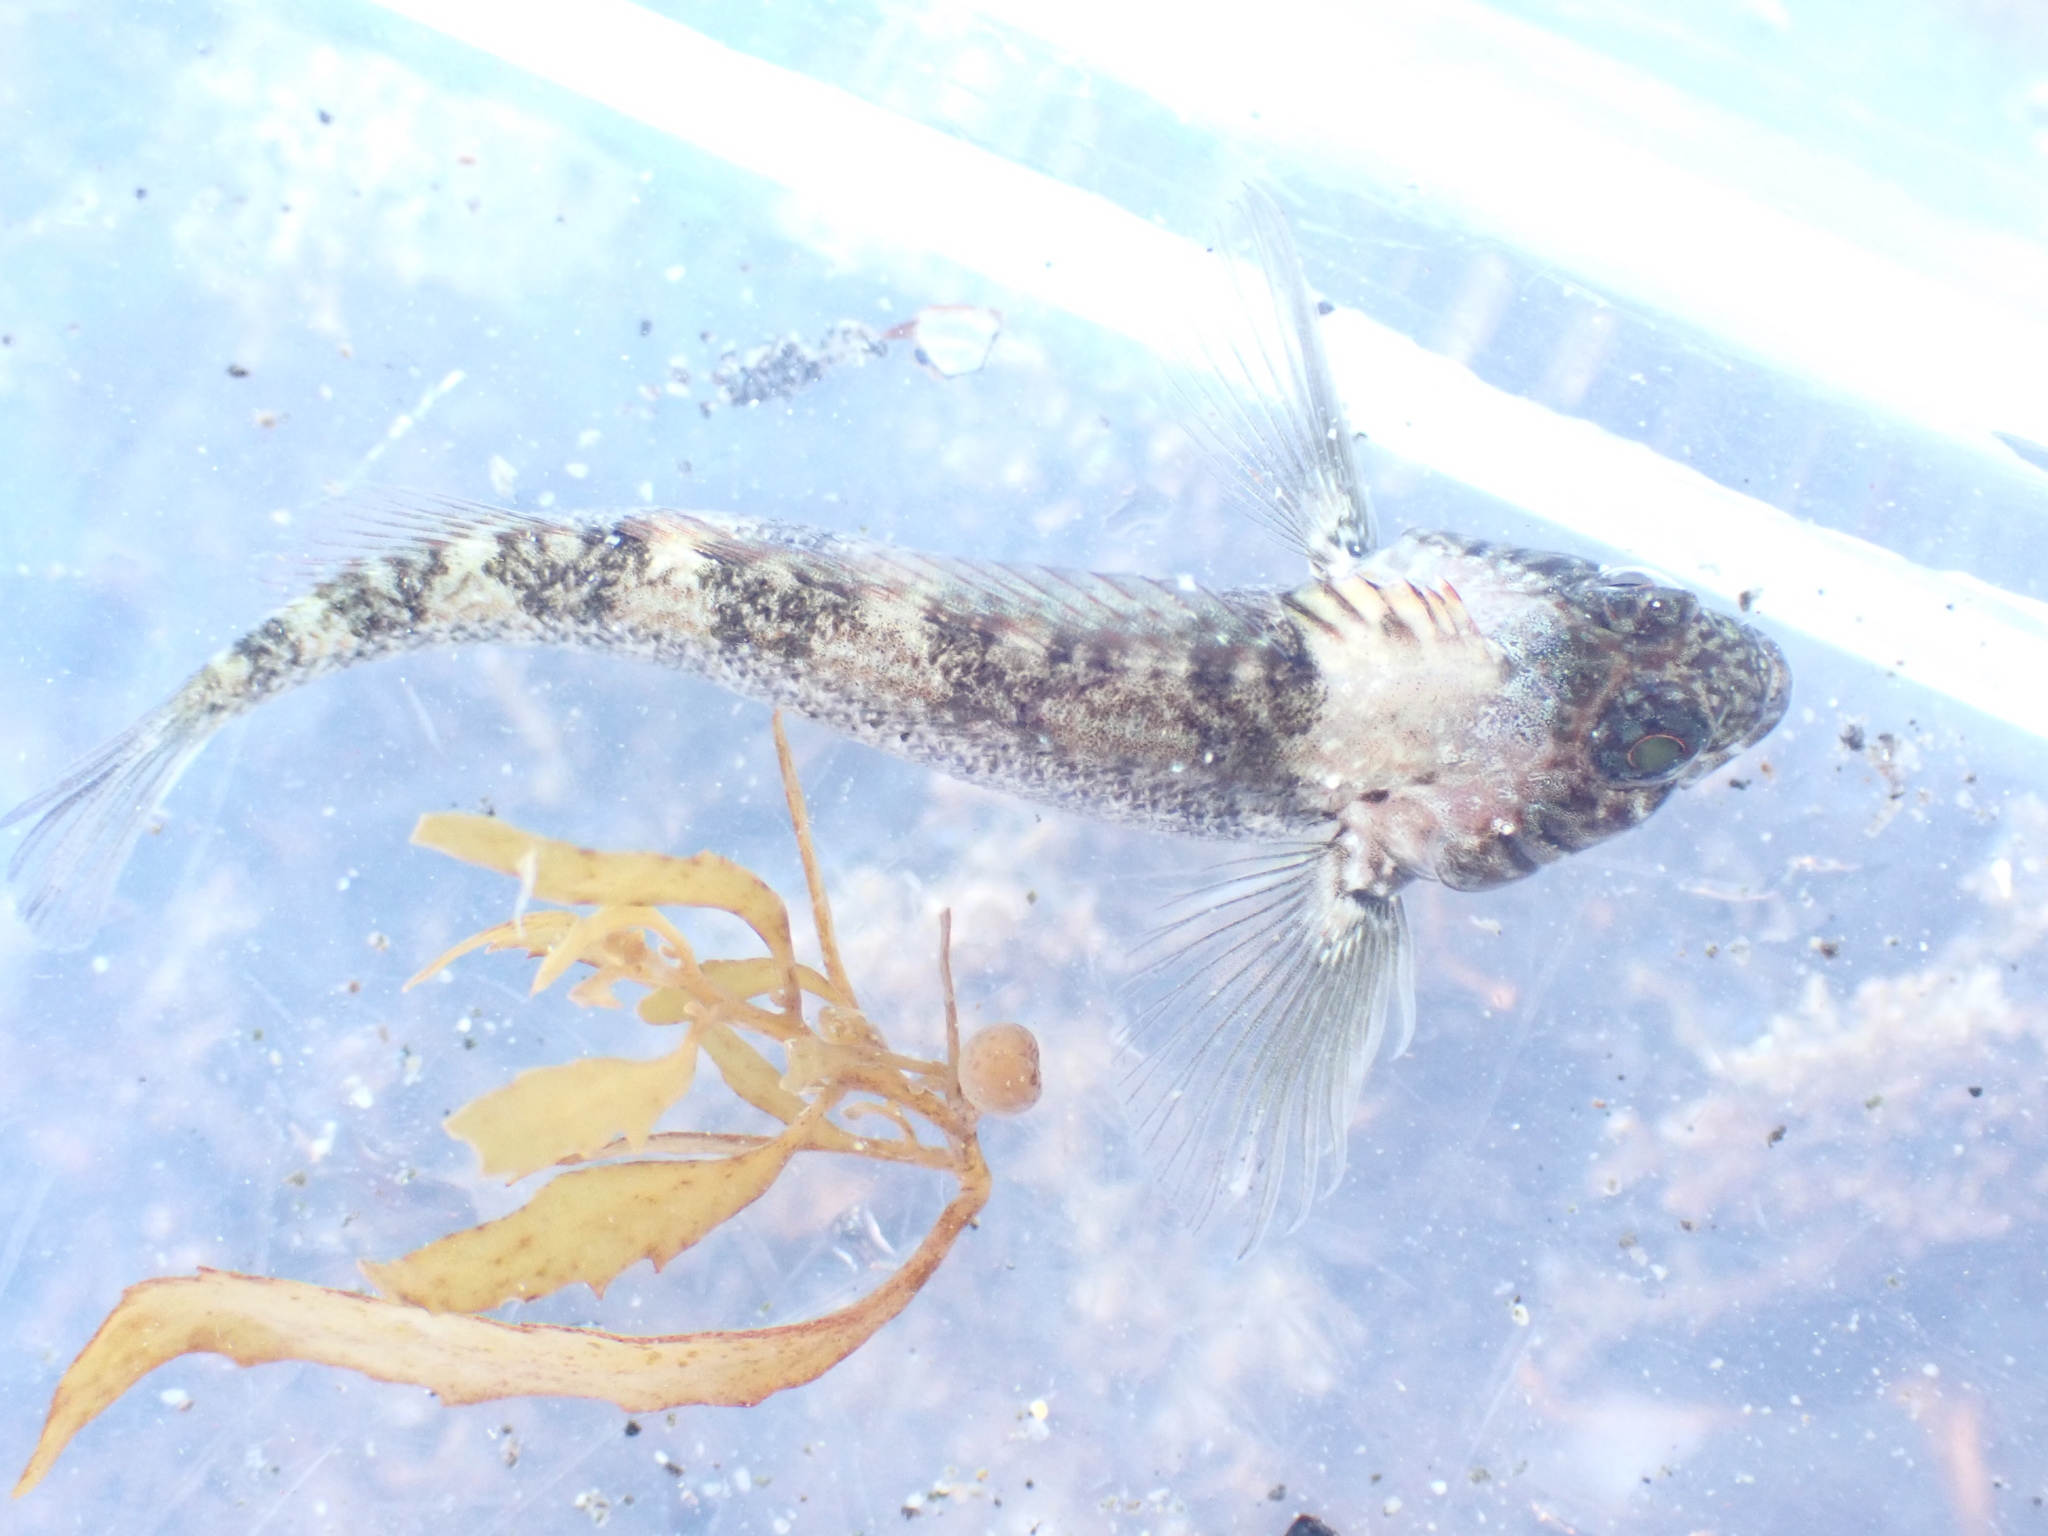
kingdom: Animalia
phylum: Chordata
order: Perciformes
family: Tripterygiidae
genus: Forsterygion
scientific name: Forsterygion gymnotum
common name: Multifid-tentacled robust triplefin
